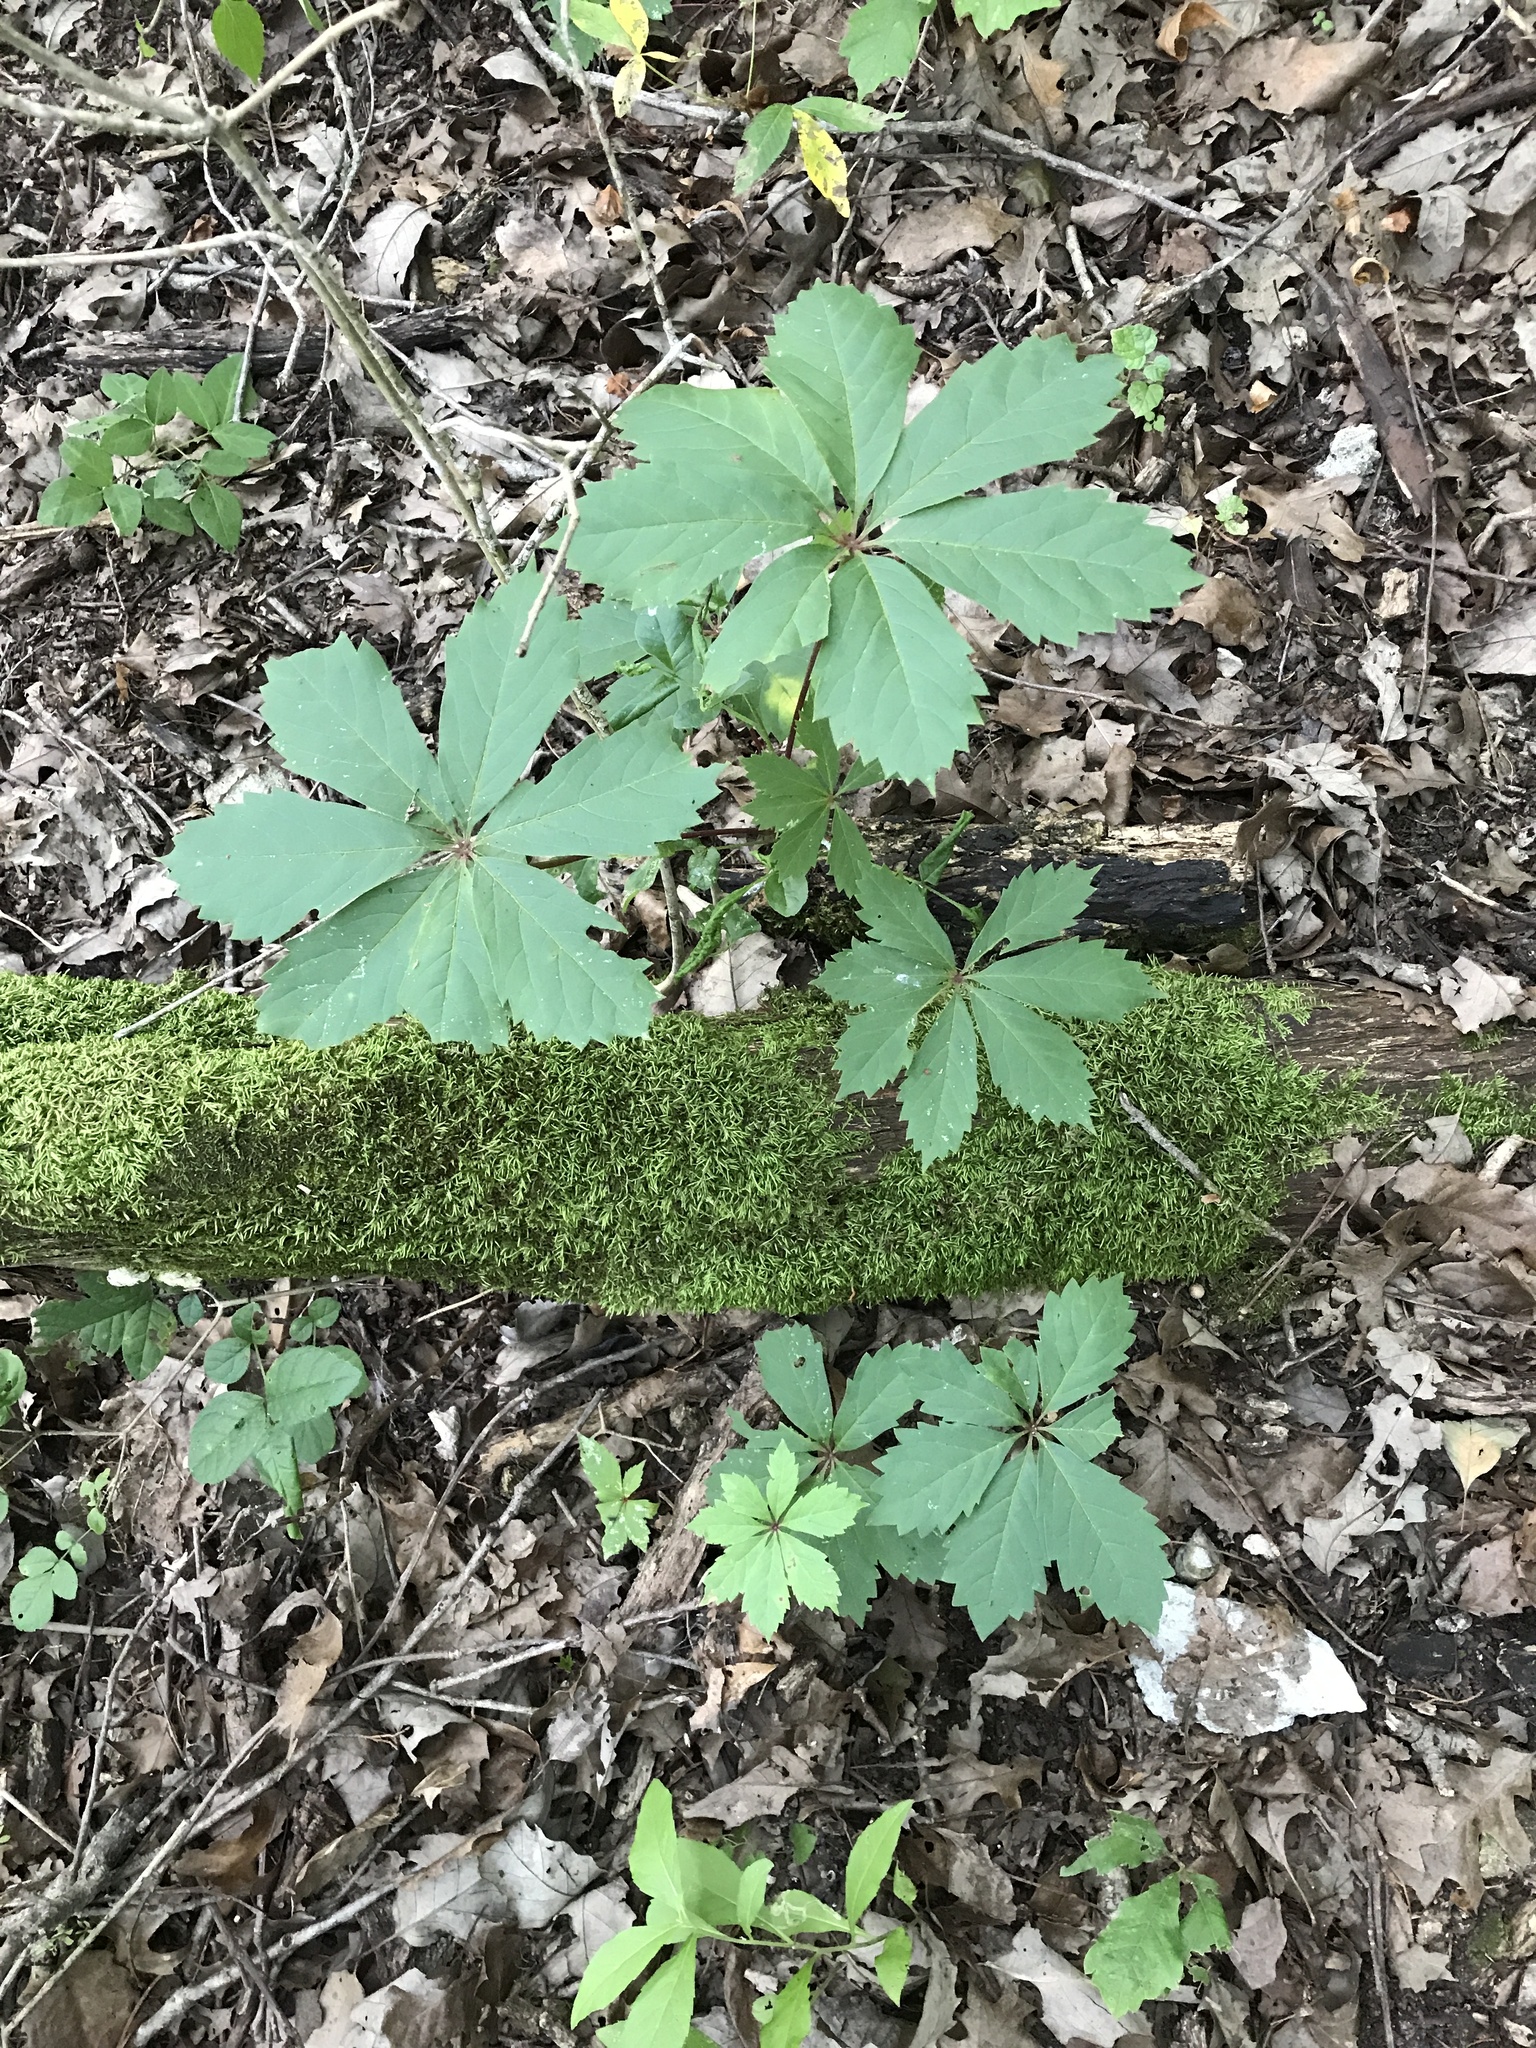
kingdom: Plantae
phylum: Tracheophyta
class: Magnoliopsida
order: Vitales
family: Vitaceae
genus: Parthenocissus
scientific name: Parthenocissus heptaphylla
